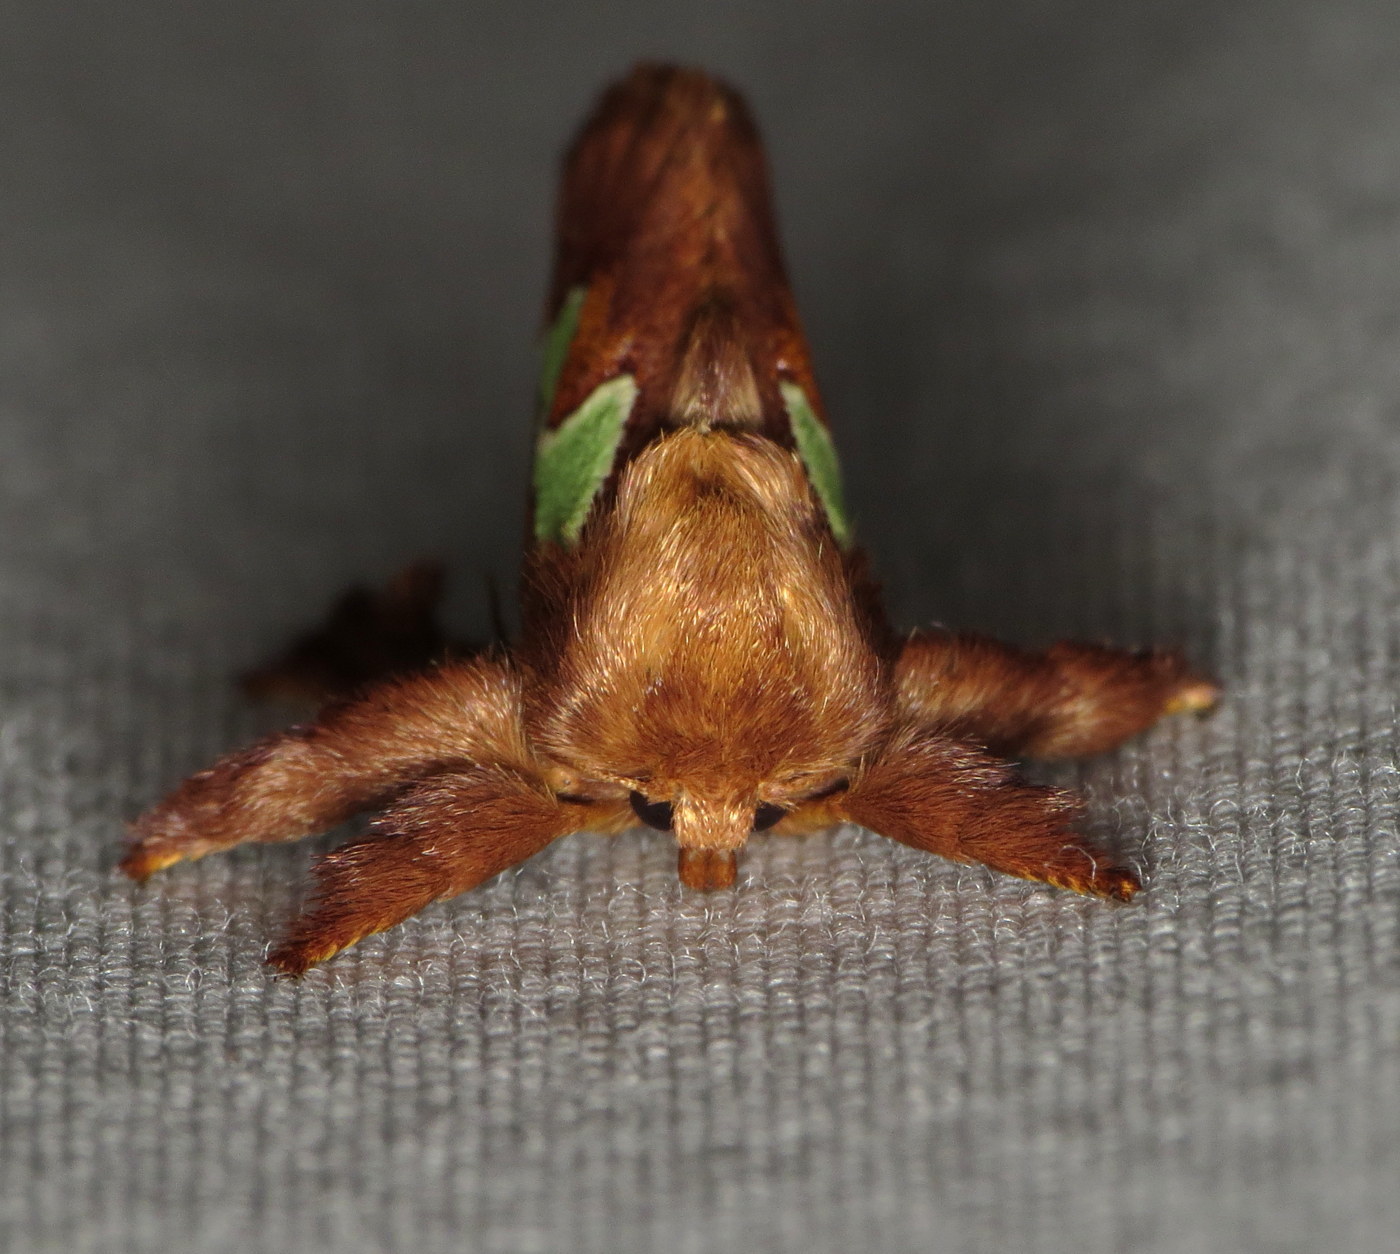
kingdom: Animalia
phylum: Arthropoda
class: Insecta
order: Lepidoptera
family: Limacodidae
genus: Euclea
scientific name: Euclea delphinii
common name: Spiny oak-slug moth
